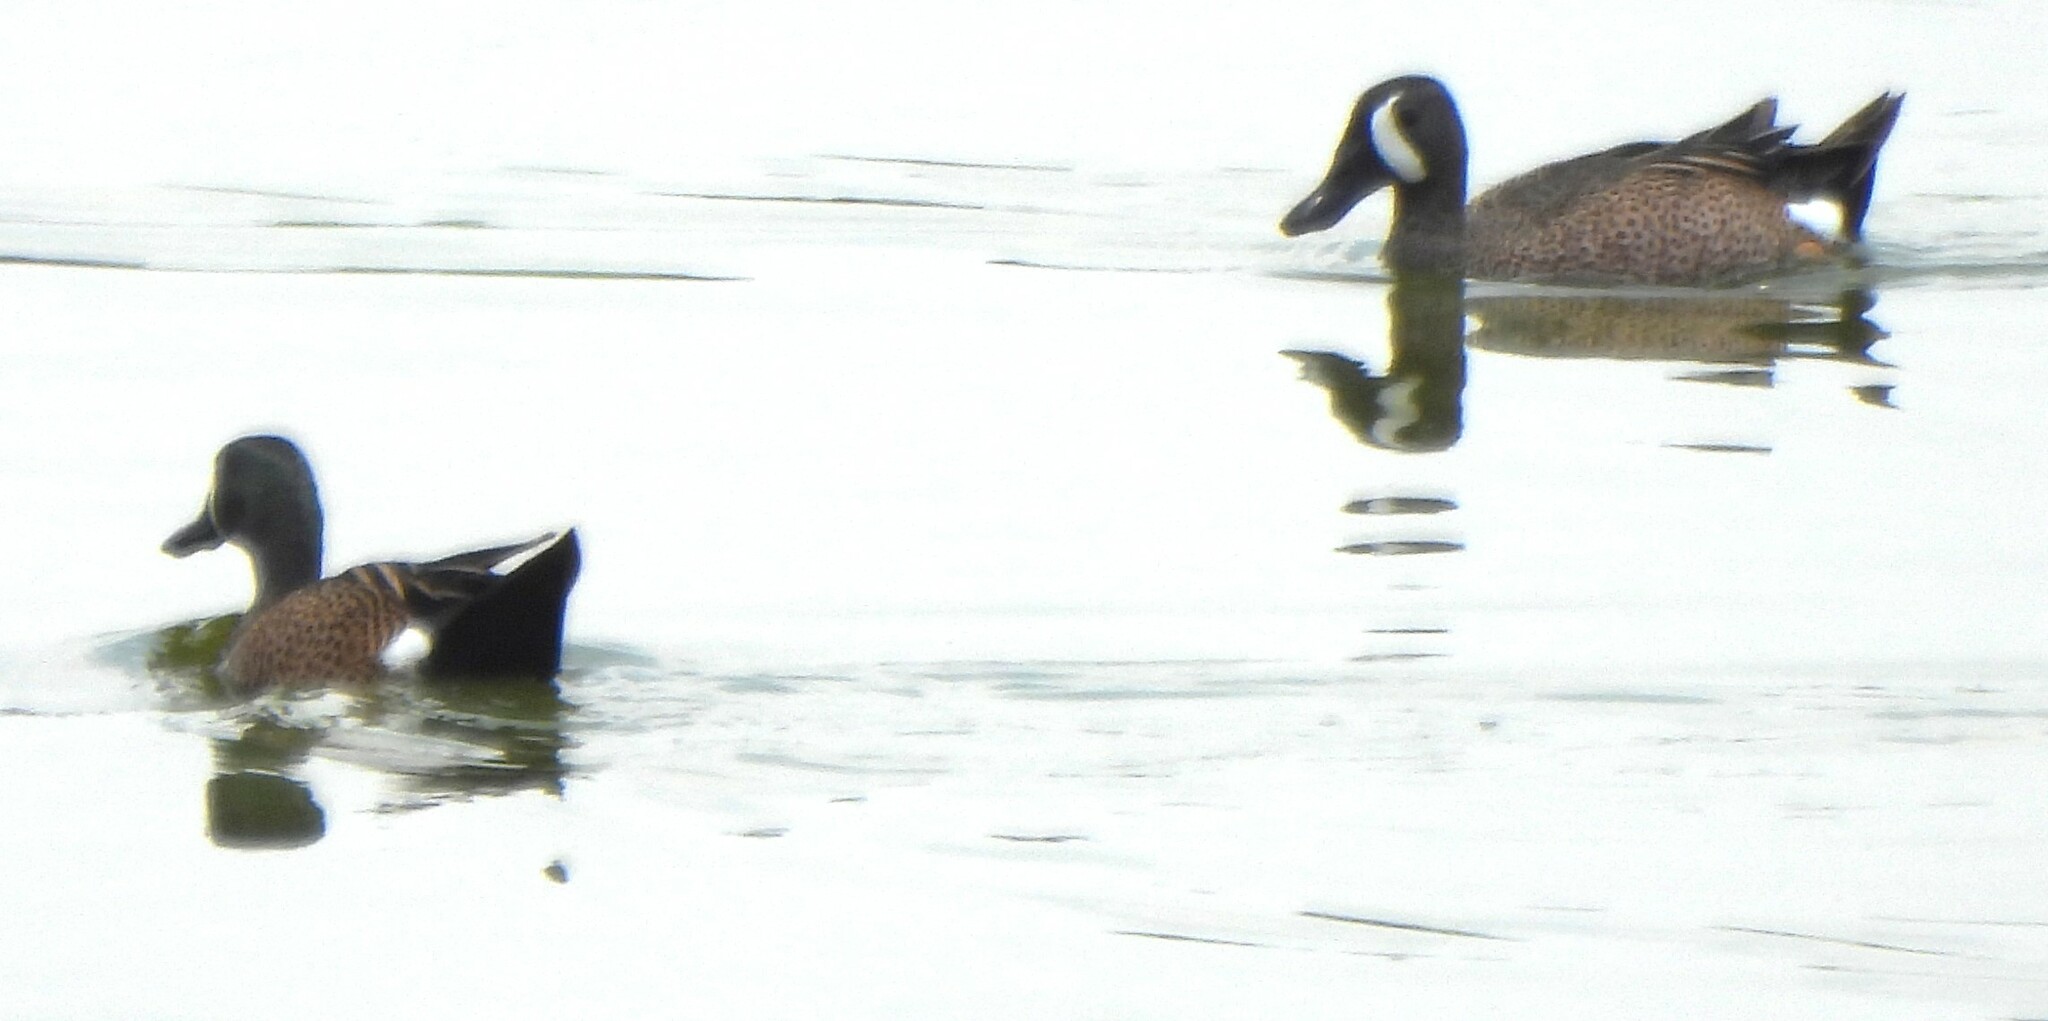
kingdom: Animalia
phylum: Chordata
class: Aves
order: Anseriformes
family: Anatidae
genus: Spatula
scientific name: Spatula discors
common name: Blue-winged teal
